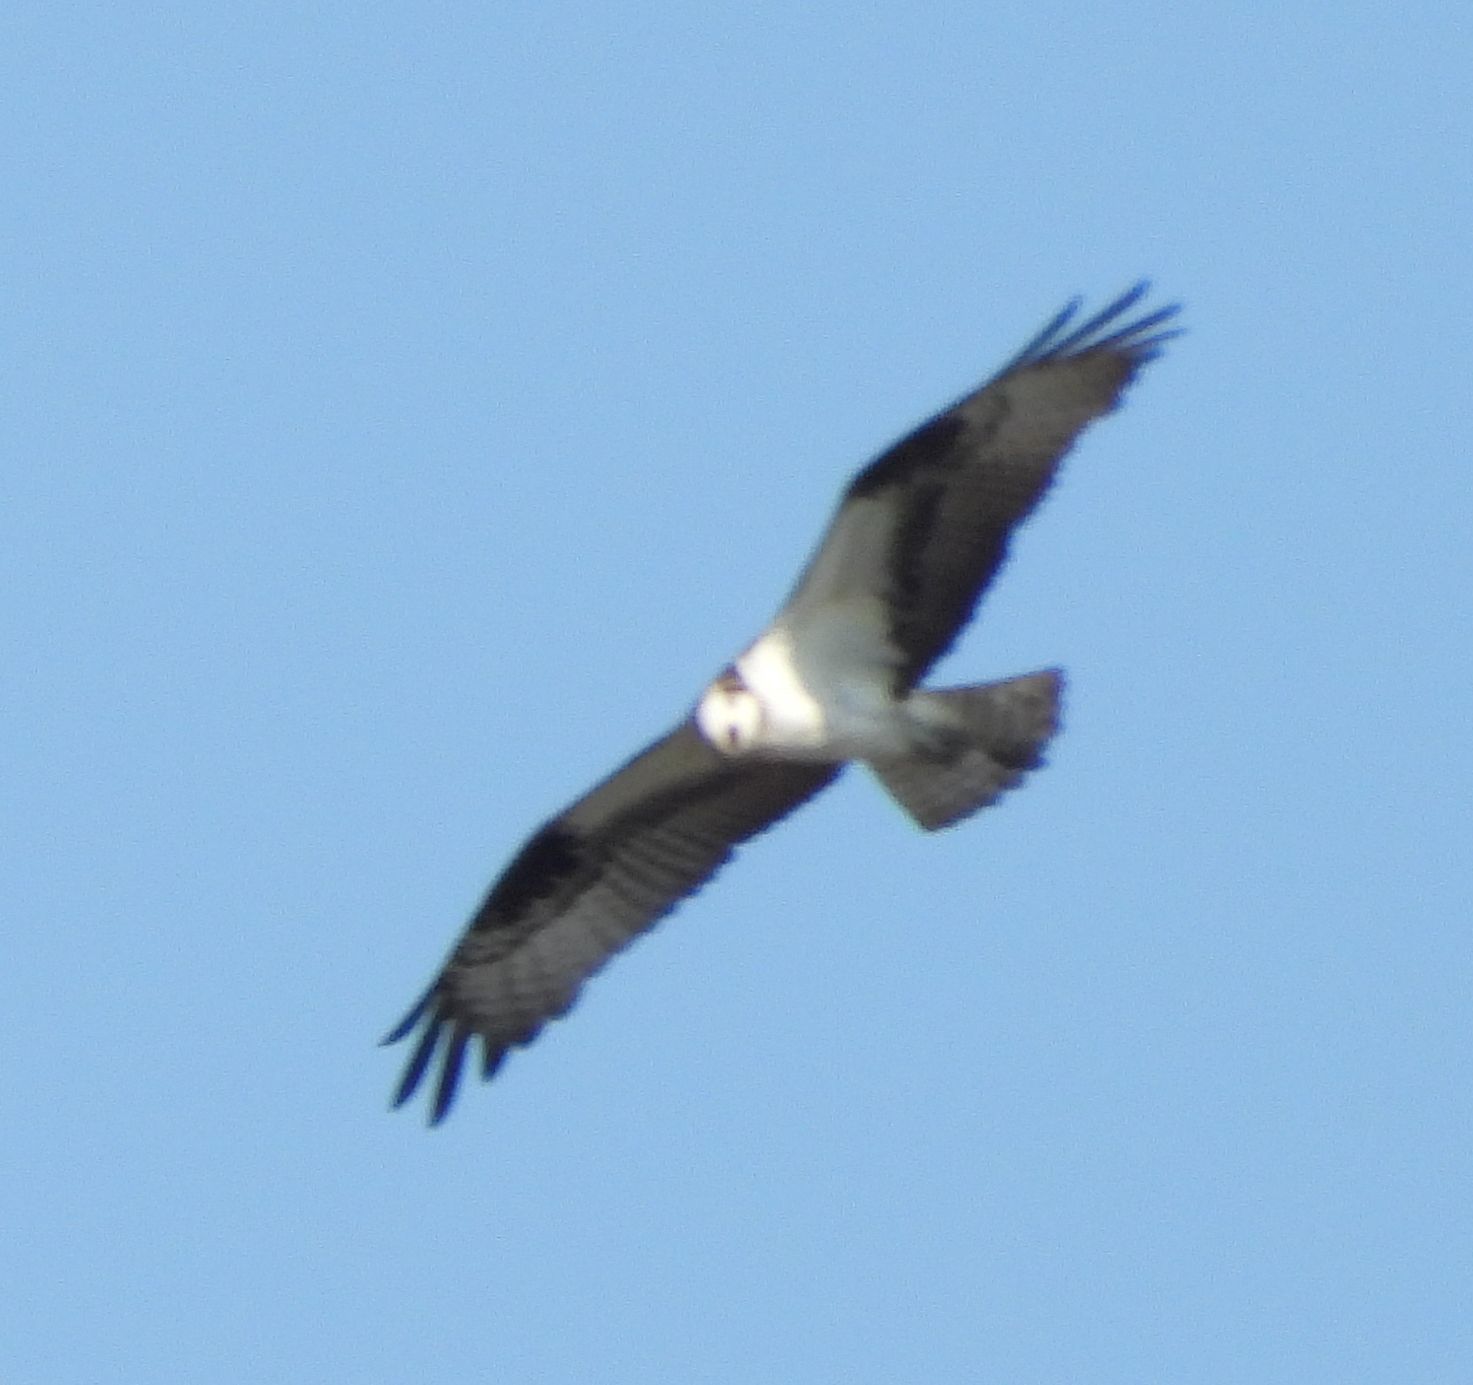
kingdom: Animalia
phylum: Chordata
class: Aves
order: Accipitriformes
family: Pandionidae
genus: Pandion
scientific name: Pandion haliaetus
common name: Osprey
